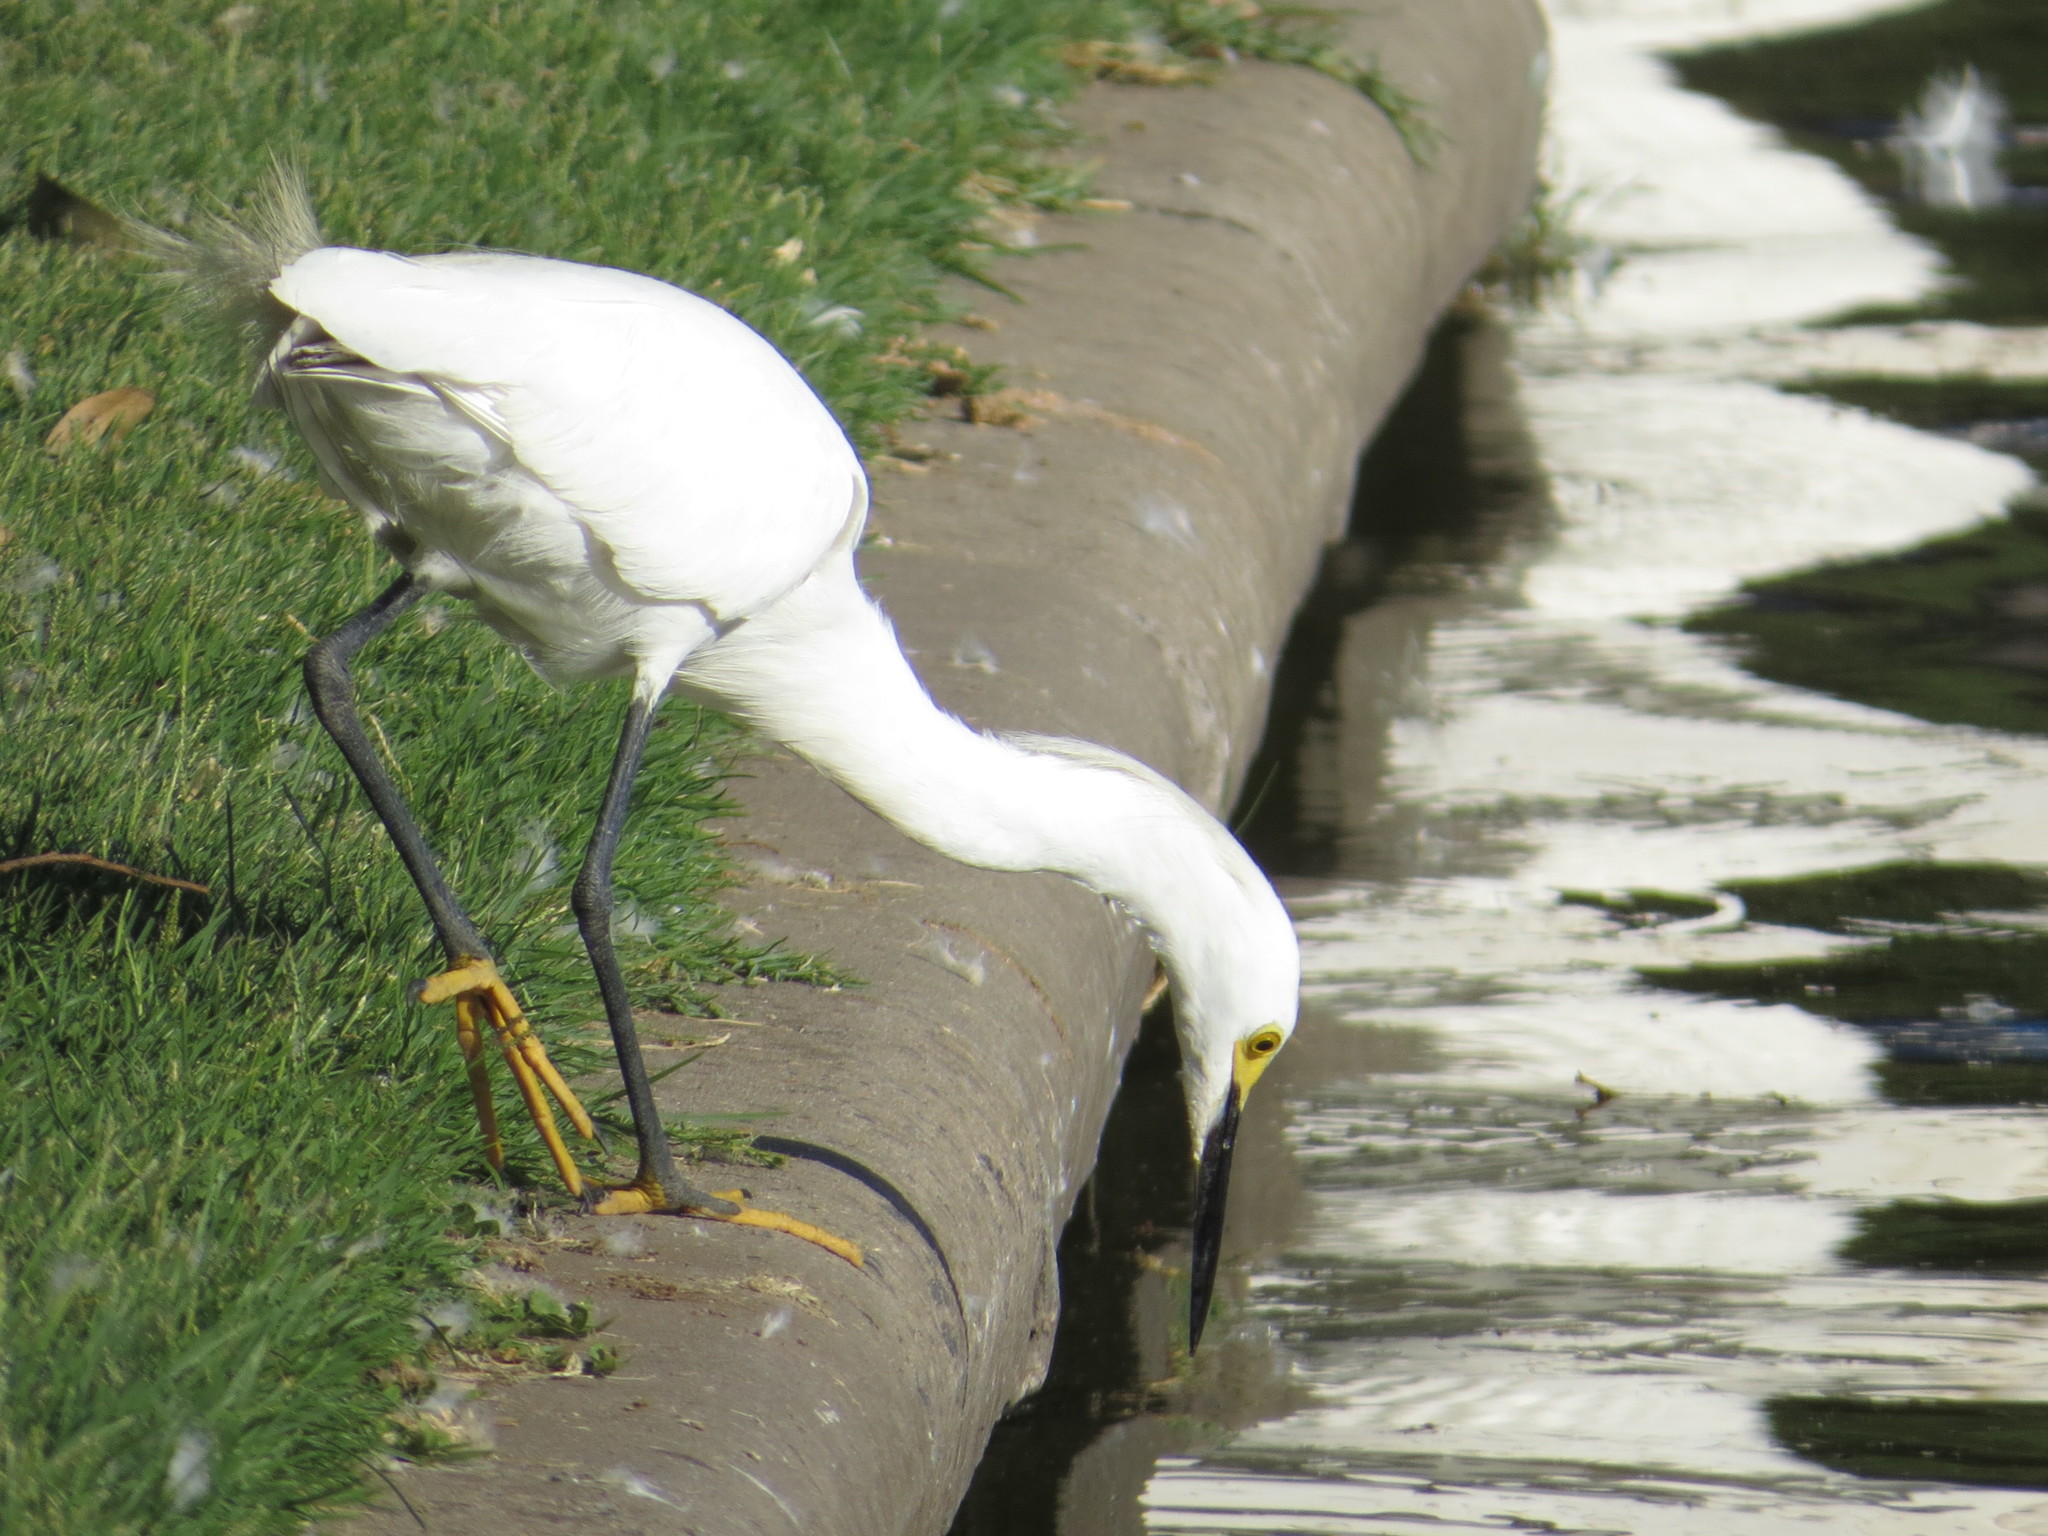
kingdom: Animalia
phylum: Chordata
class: Aves
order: Pelecaniformes
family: Ardeidae
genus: Egretta
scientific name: Egretta thula
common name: Snowy egret
